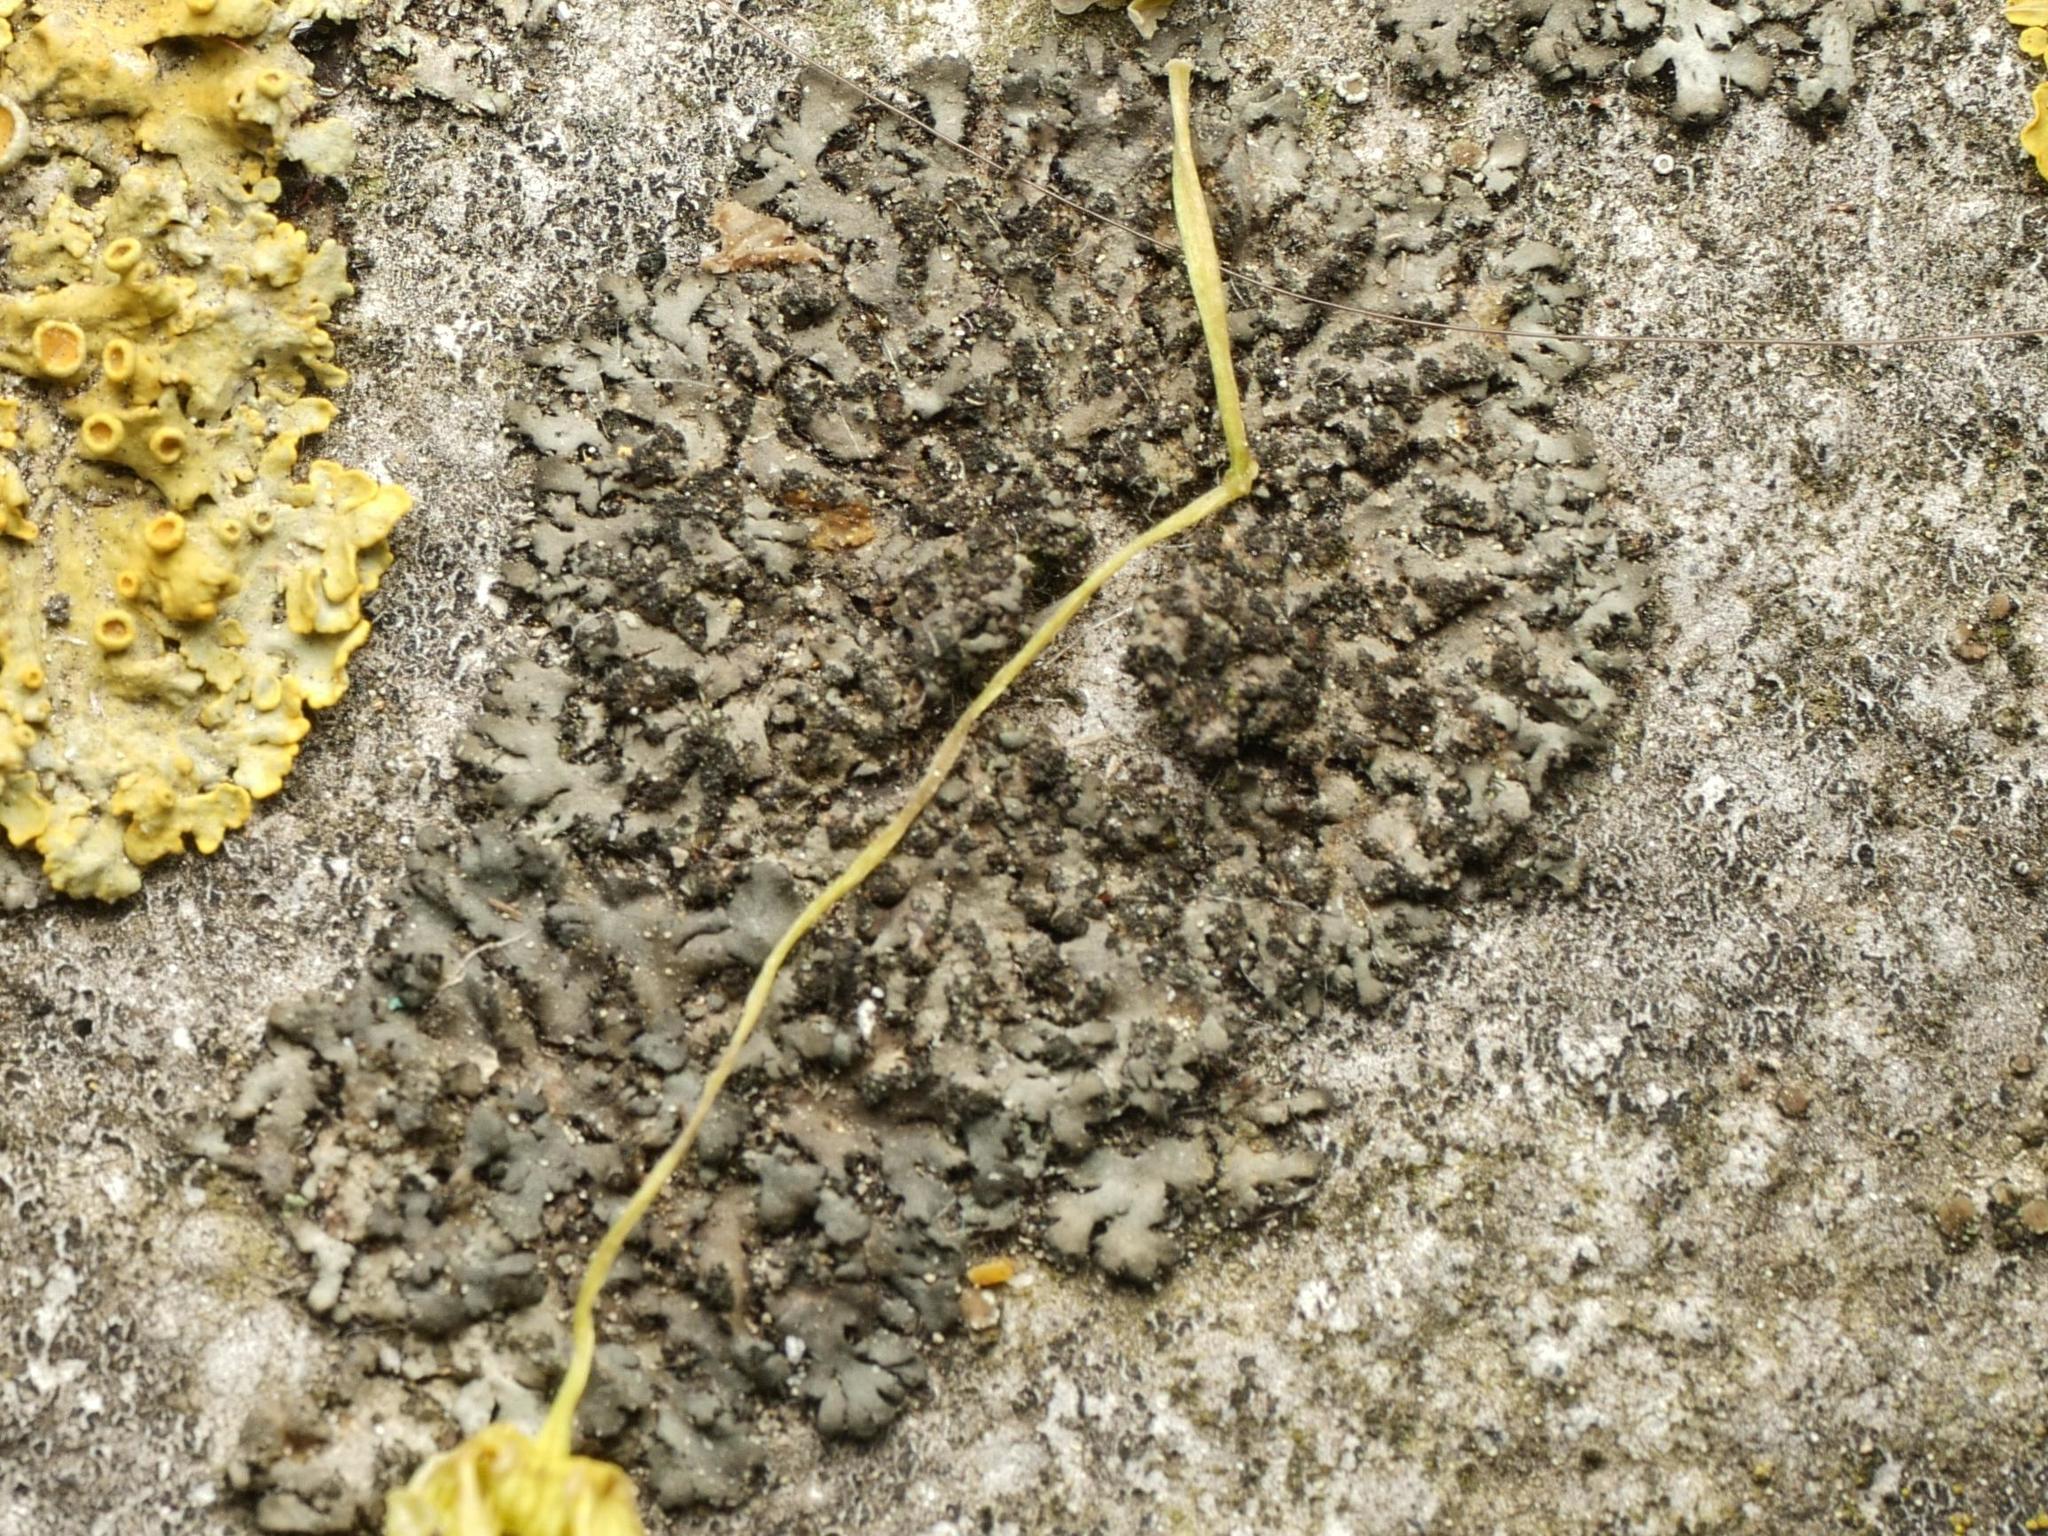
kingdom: Fungi
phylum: Ascomycota
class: Lecanoromycetes
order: Caliciales
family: Physciaceae
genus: Phaeophyscia
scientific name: Phaeophyscia orbicularis
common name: Mealy shadow lichen
